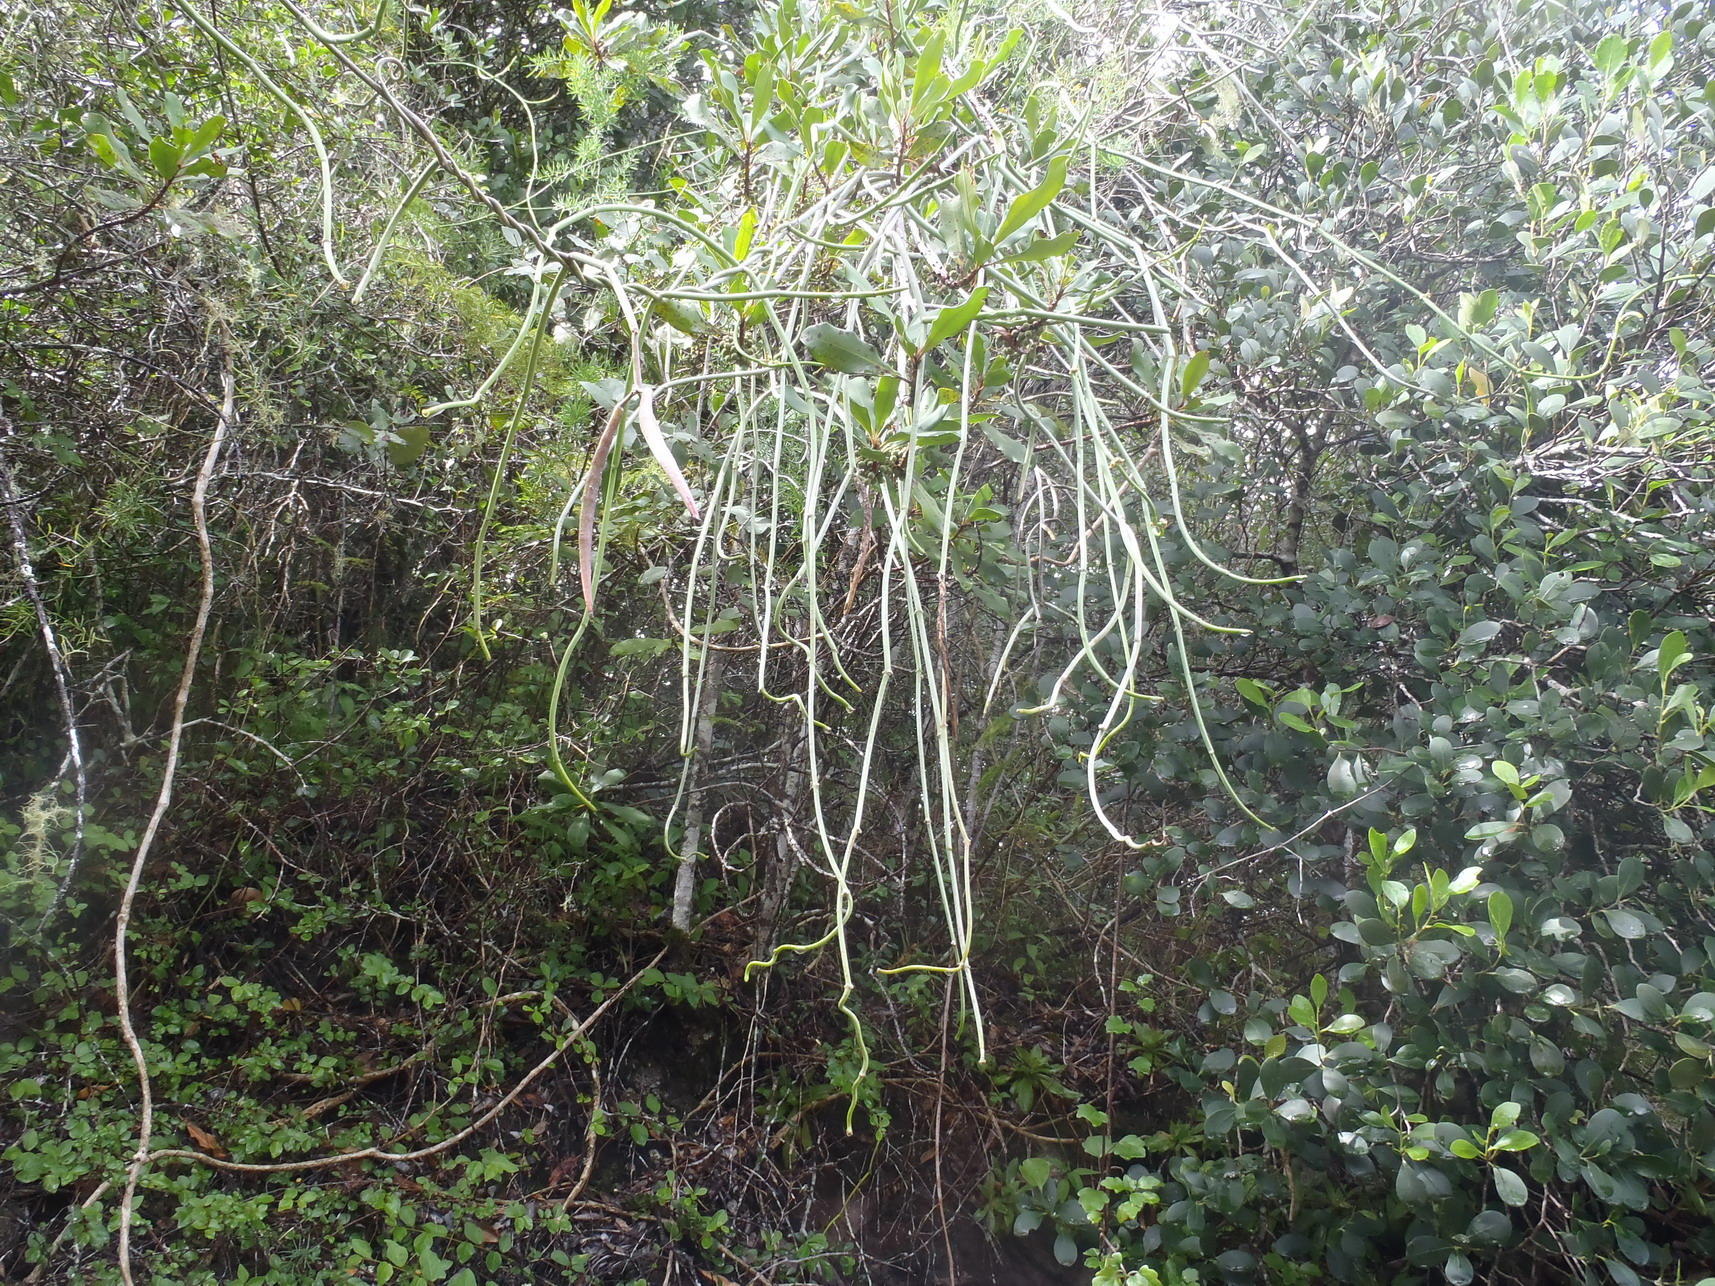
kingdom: Plantae
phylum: Tracheophyta
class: Magnoliopsida
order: Gentianales
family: Apocynaceae
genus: Cynanchum
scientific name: Cynanchum viminale
